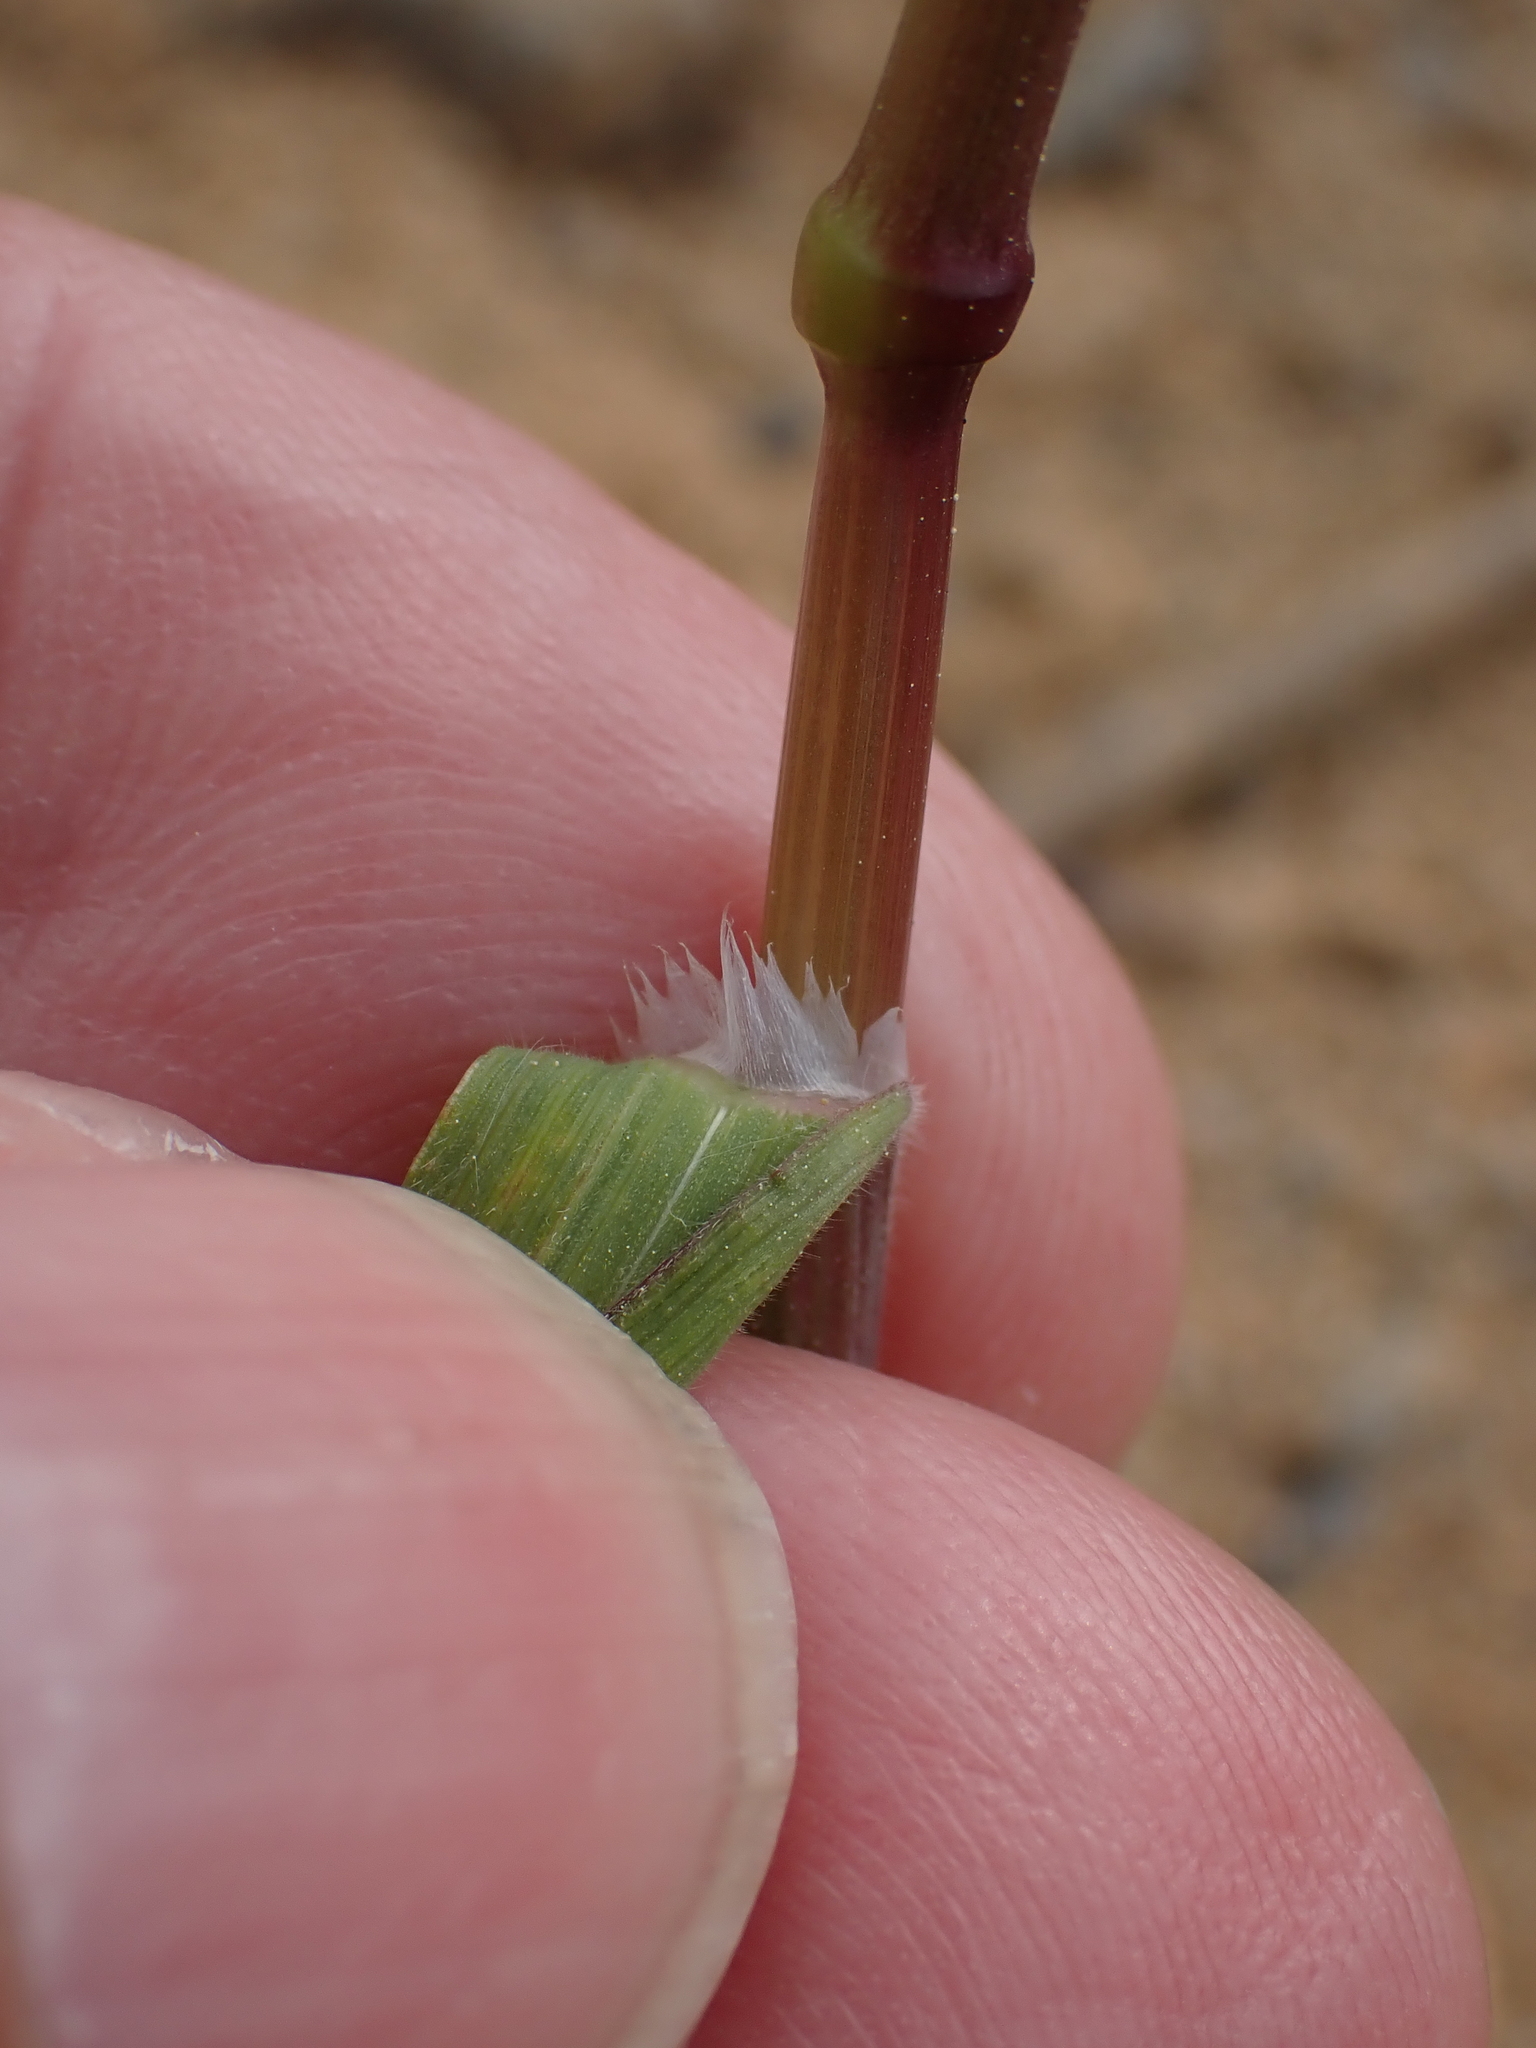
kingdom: Plantae
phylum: Tracheophyta
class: Liliopsida
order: Poales
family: Poaceae
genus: Bromus
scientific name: Bromus sterilis
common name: Poverty brome
